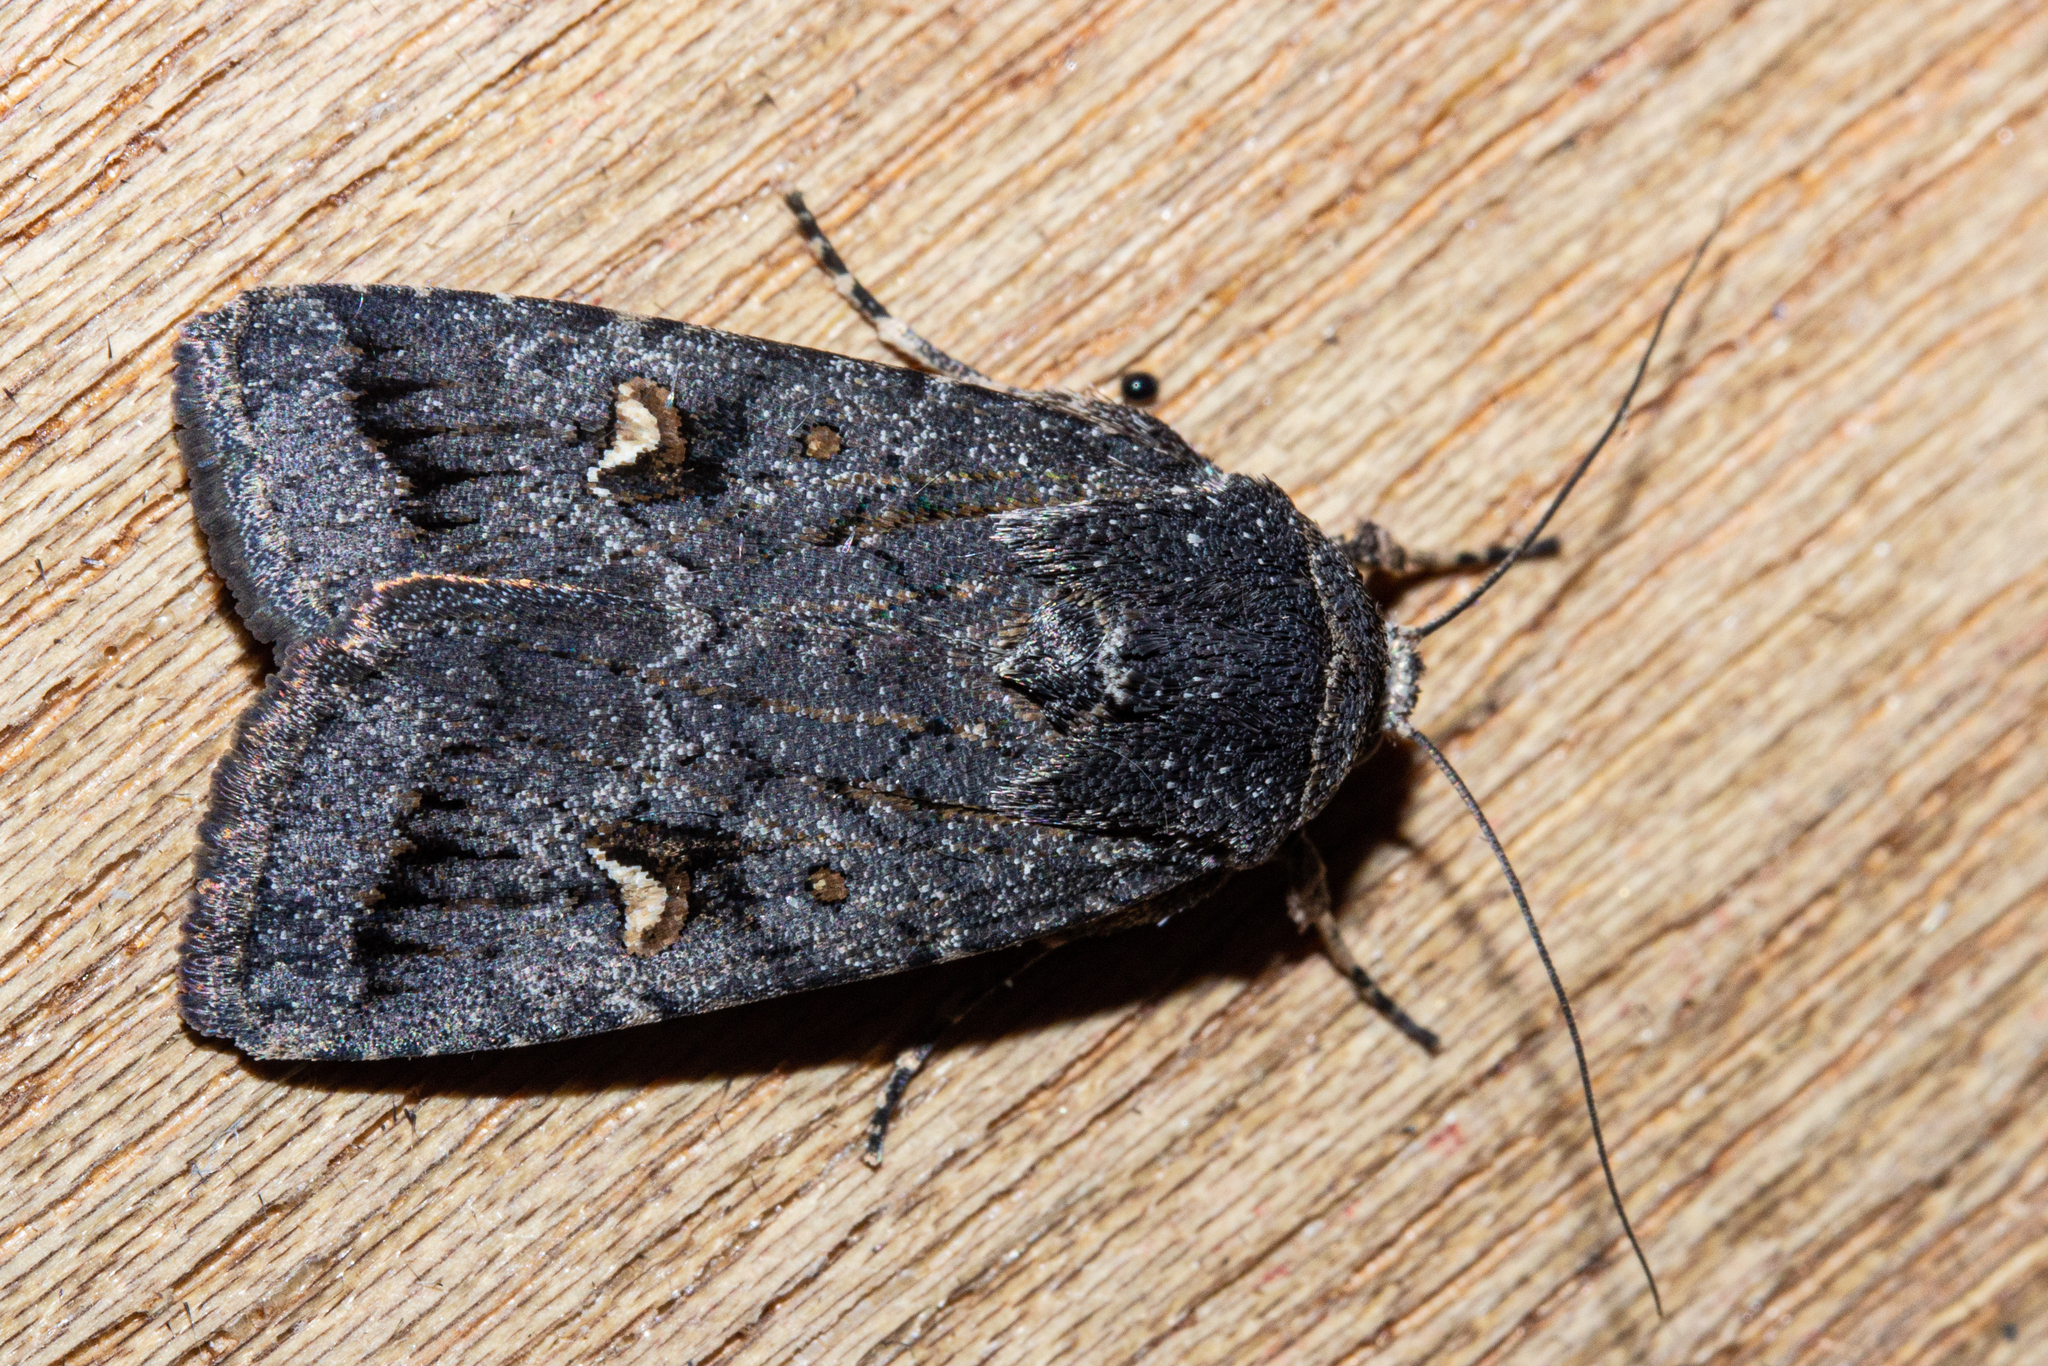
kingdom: Animalia
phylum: Arthropoda
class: Insecta
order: Lepidoptera
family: Noctuidae
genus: Proteuxoa
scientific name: Proteuxoa comma
